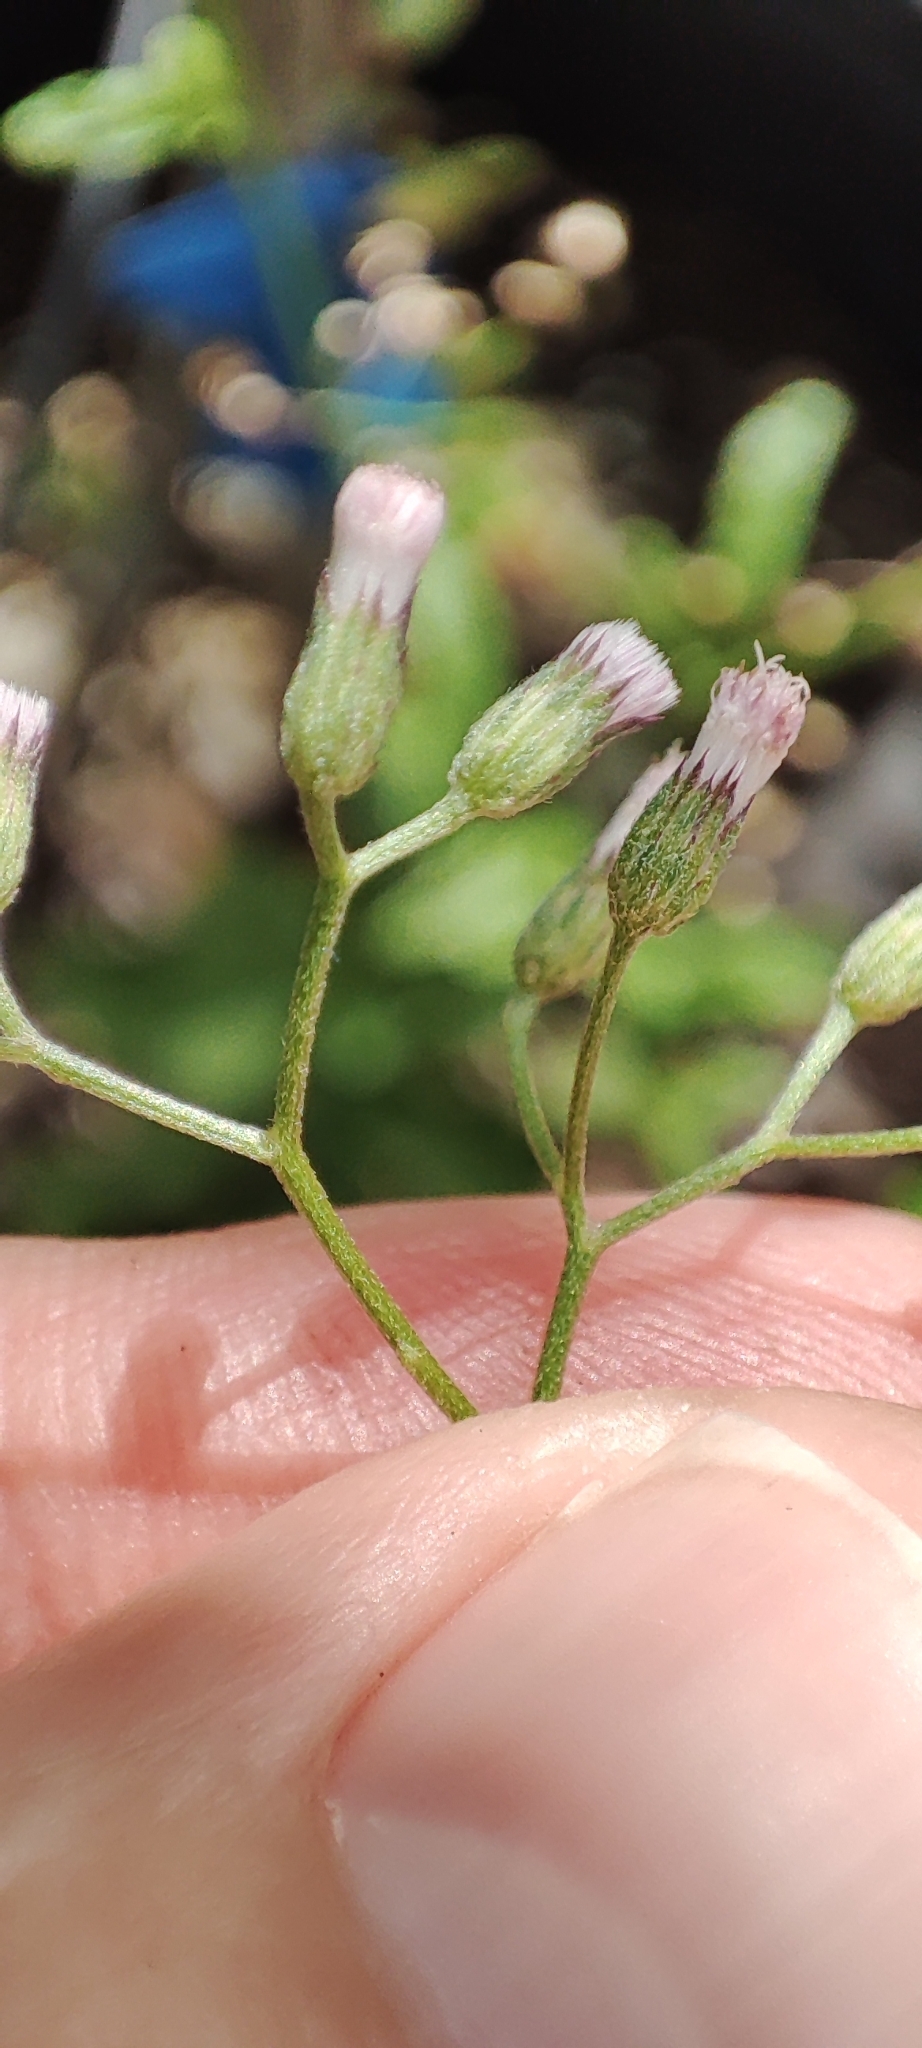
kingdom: Plantae
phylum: Tracheophyta
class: Magnoliopsida
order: Asterales
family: Asteraceae
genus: Cyanthillium
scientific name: Cyanthillium cinereum
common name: Little ironweed
